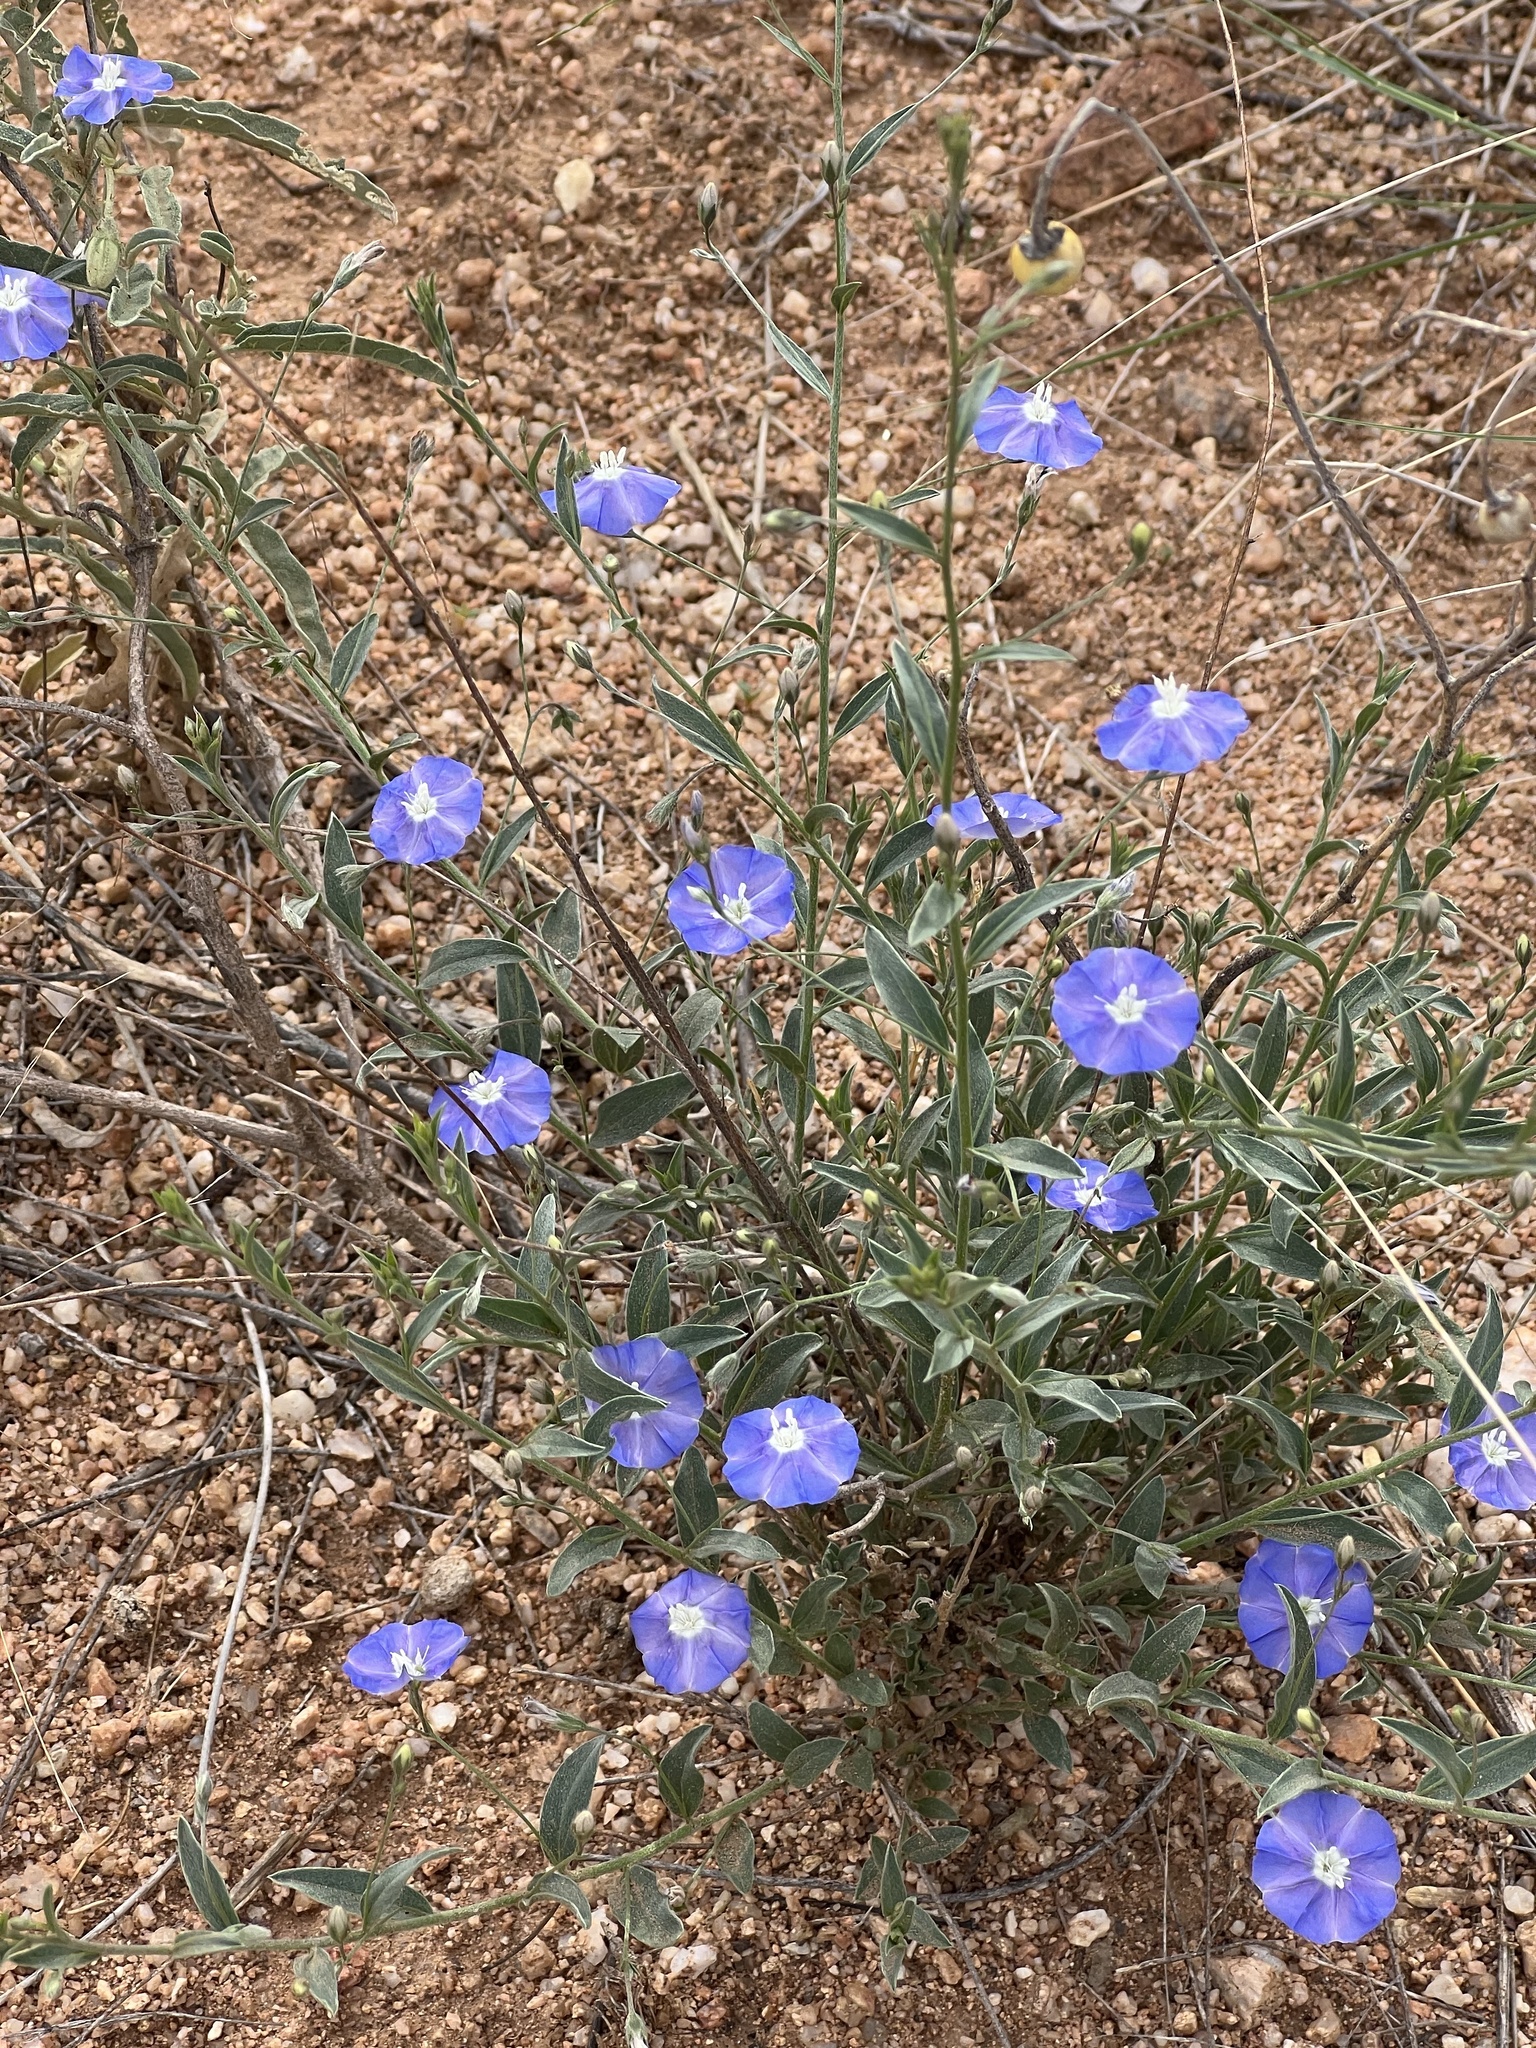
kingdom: Plantae
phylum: Tracheophyta
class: Magnoliopsida
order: Solanales
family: Convolvulaceae
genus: Evolvulus
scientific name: Evolvulus arizonicus
